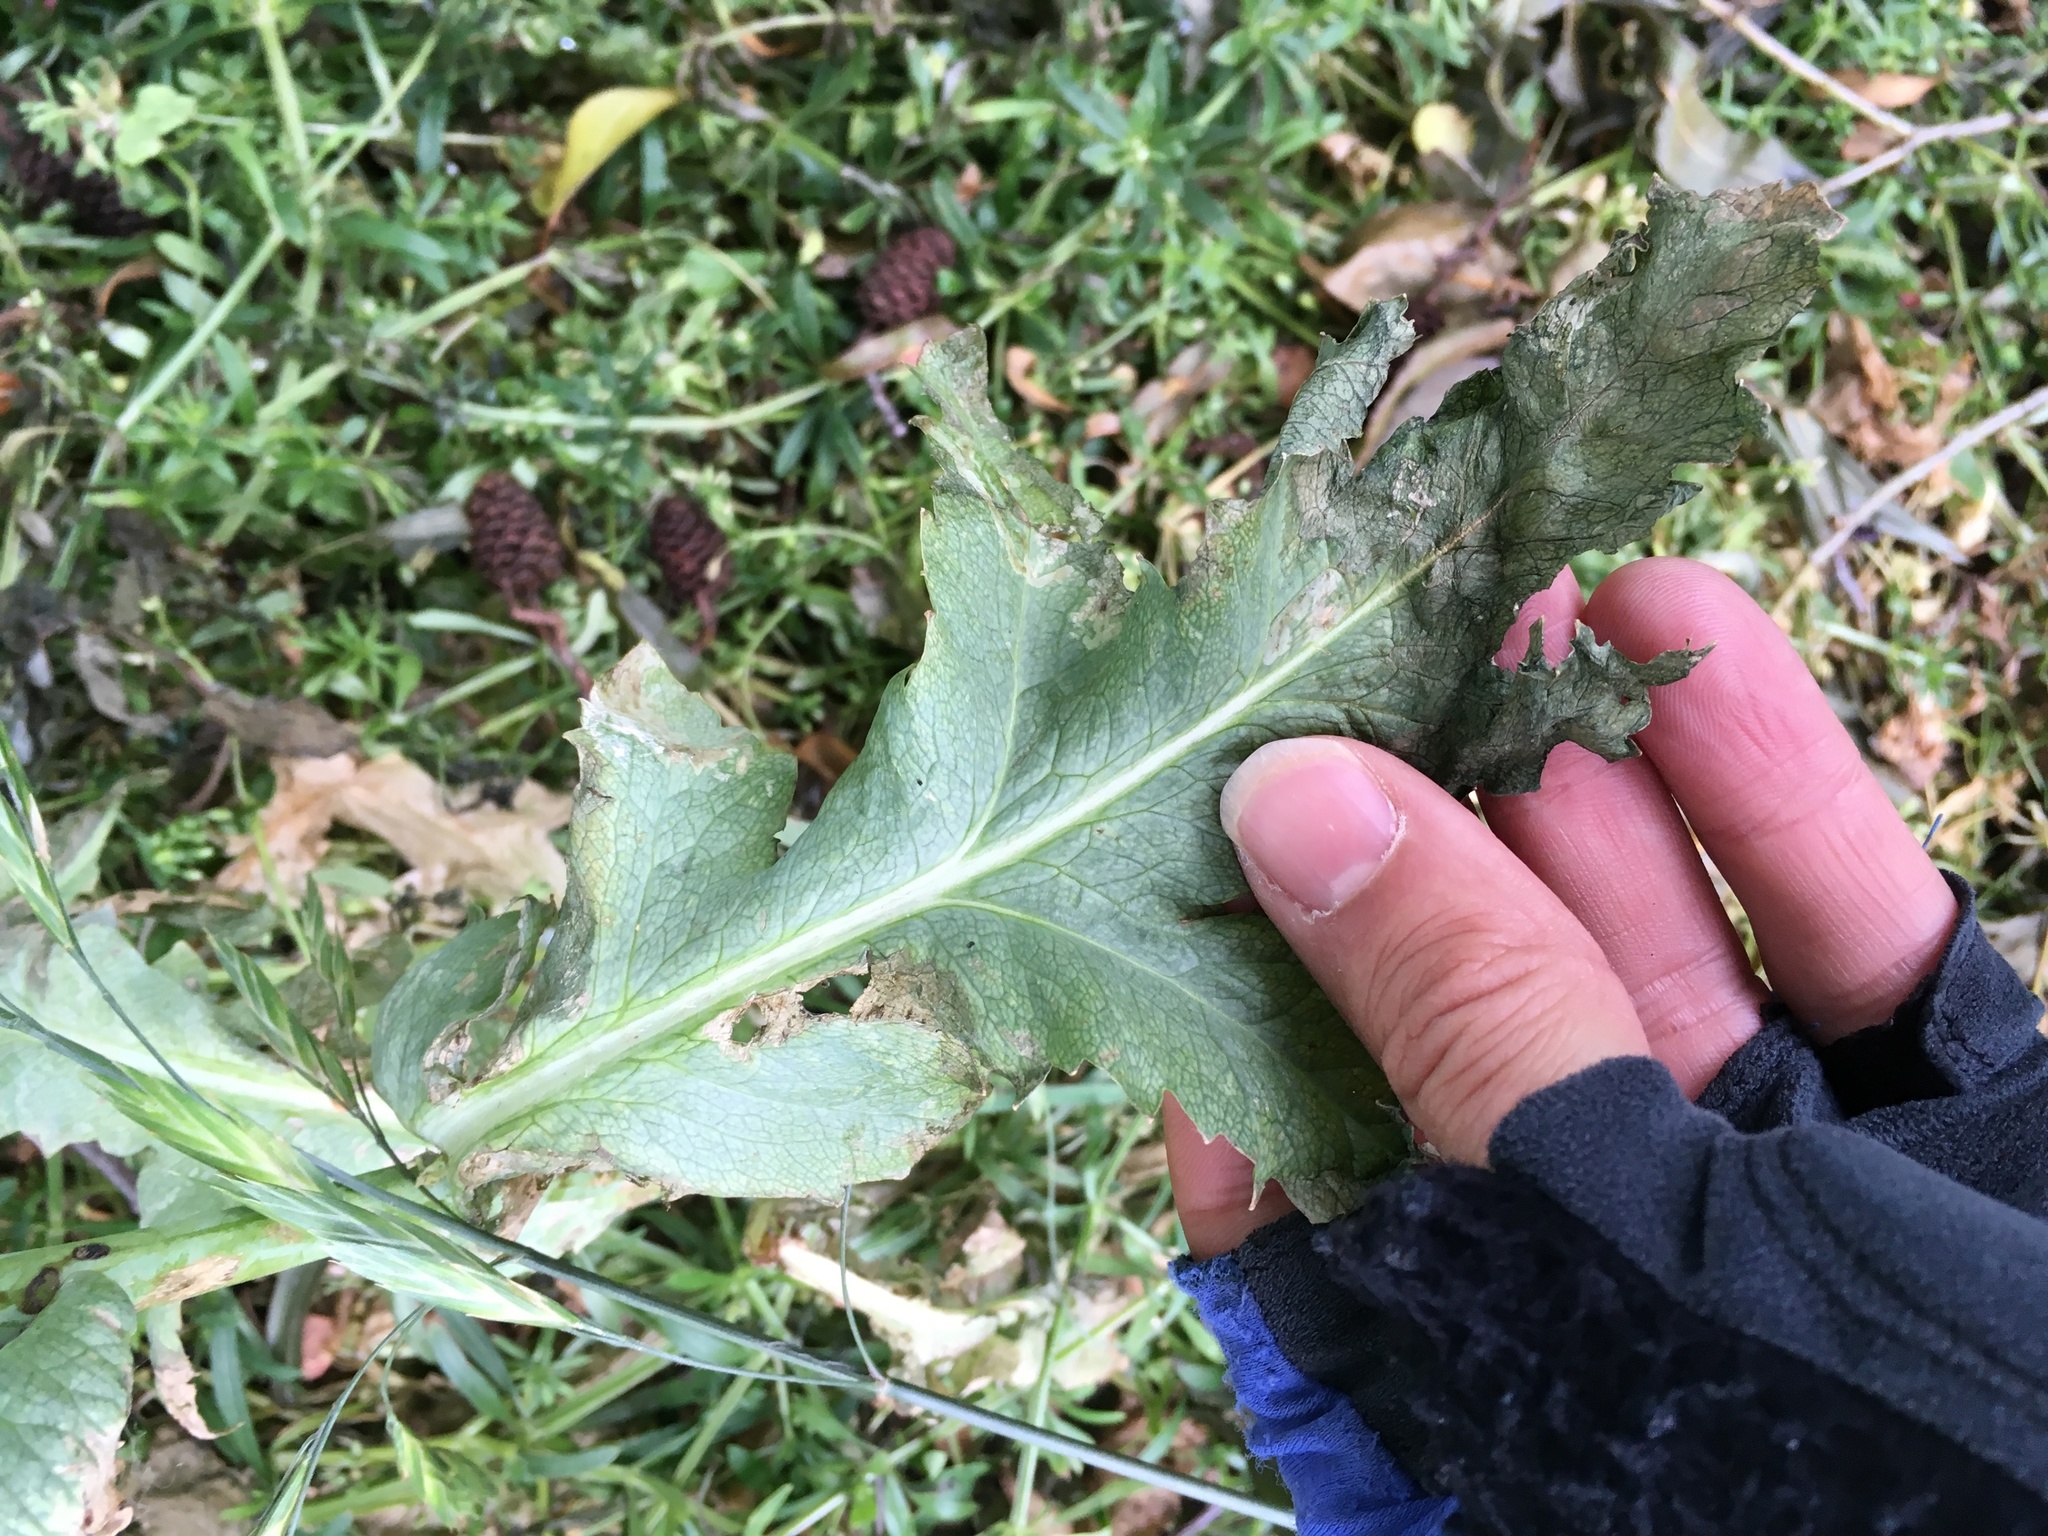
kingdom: Plantae
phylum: Tracheophyta
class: Magnoliopsida
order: Ranunculales
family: Papaveraceae
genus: Papaver
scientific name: Papaver somniferum
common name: Opium poppy
